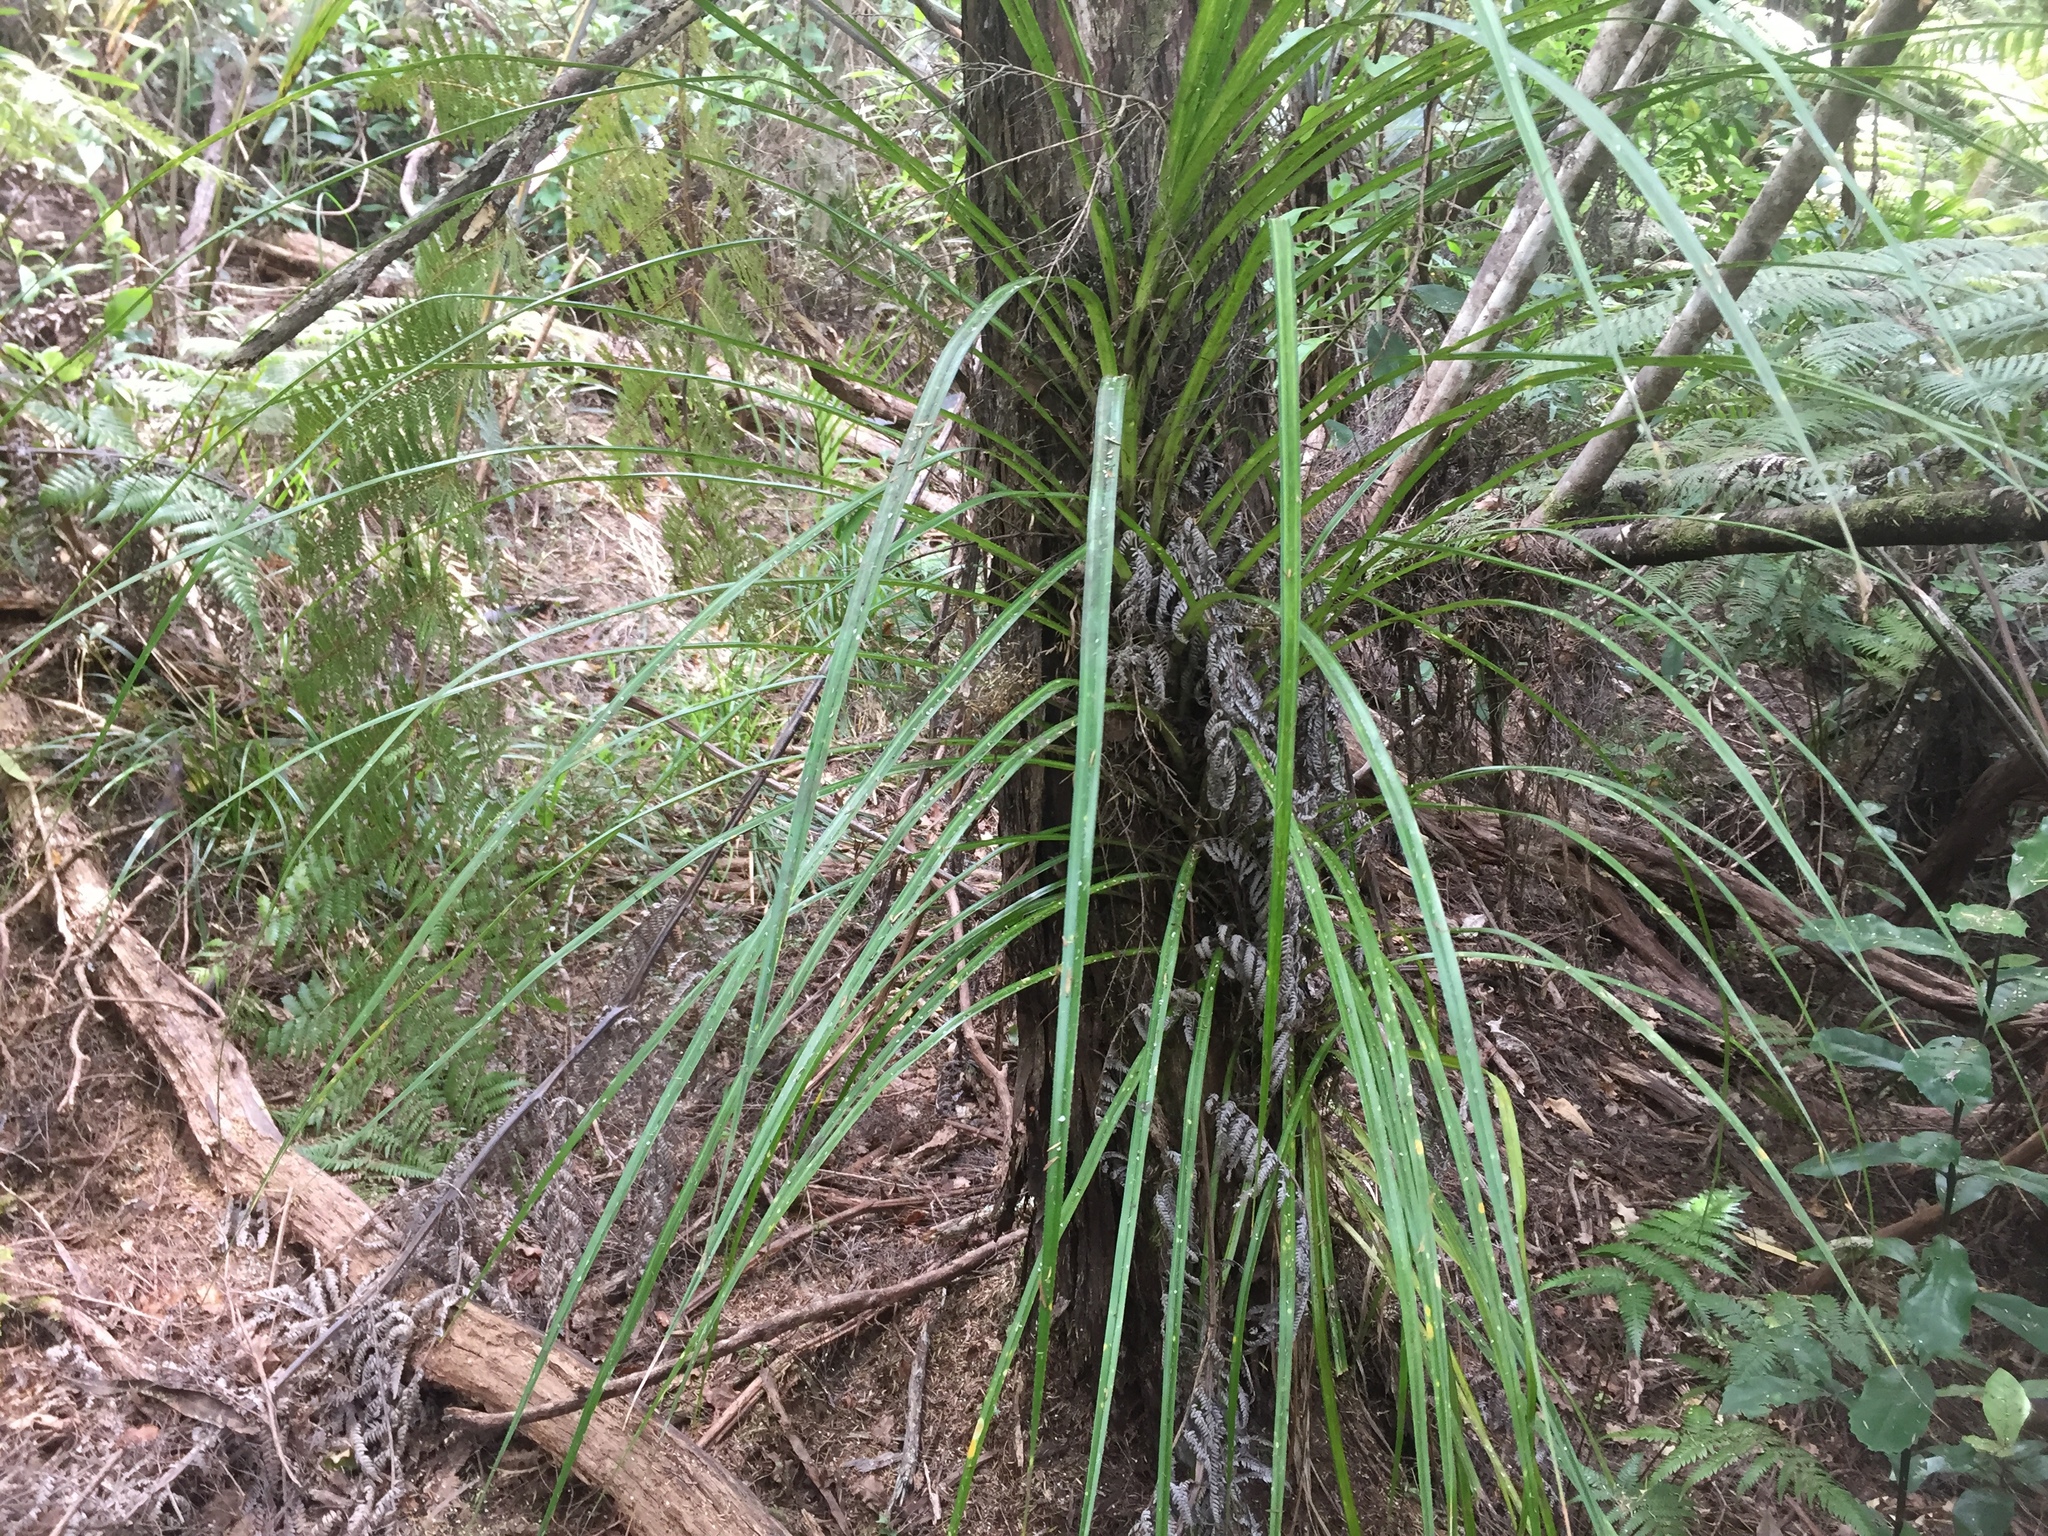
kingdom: Plantae
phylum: Tracheophyta
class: Liliopsida
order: Pandanales
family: Pandanaceae
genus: Freycinetia
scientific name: Freycinetia banksii
